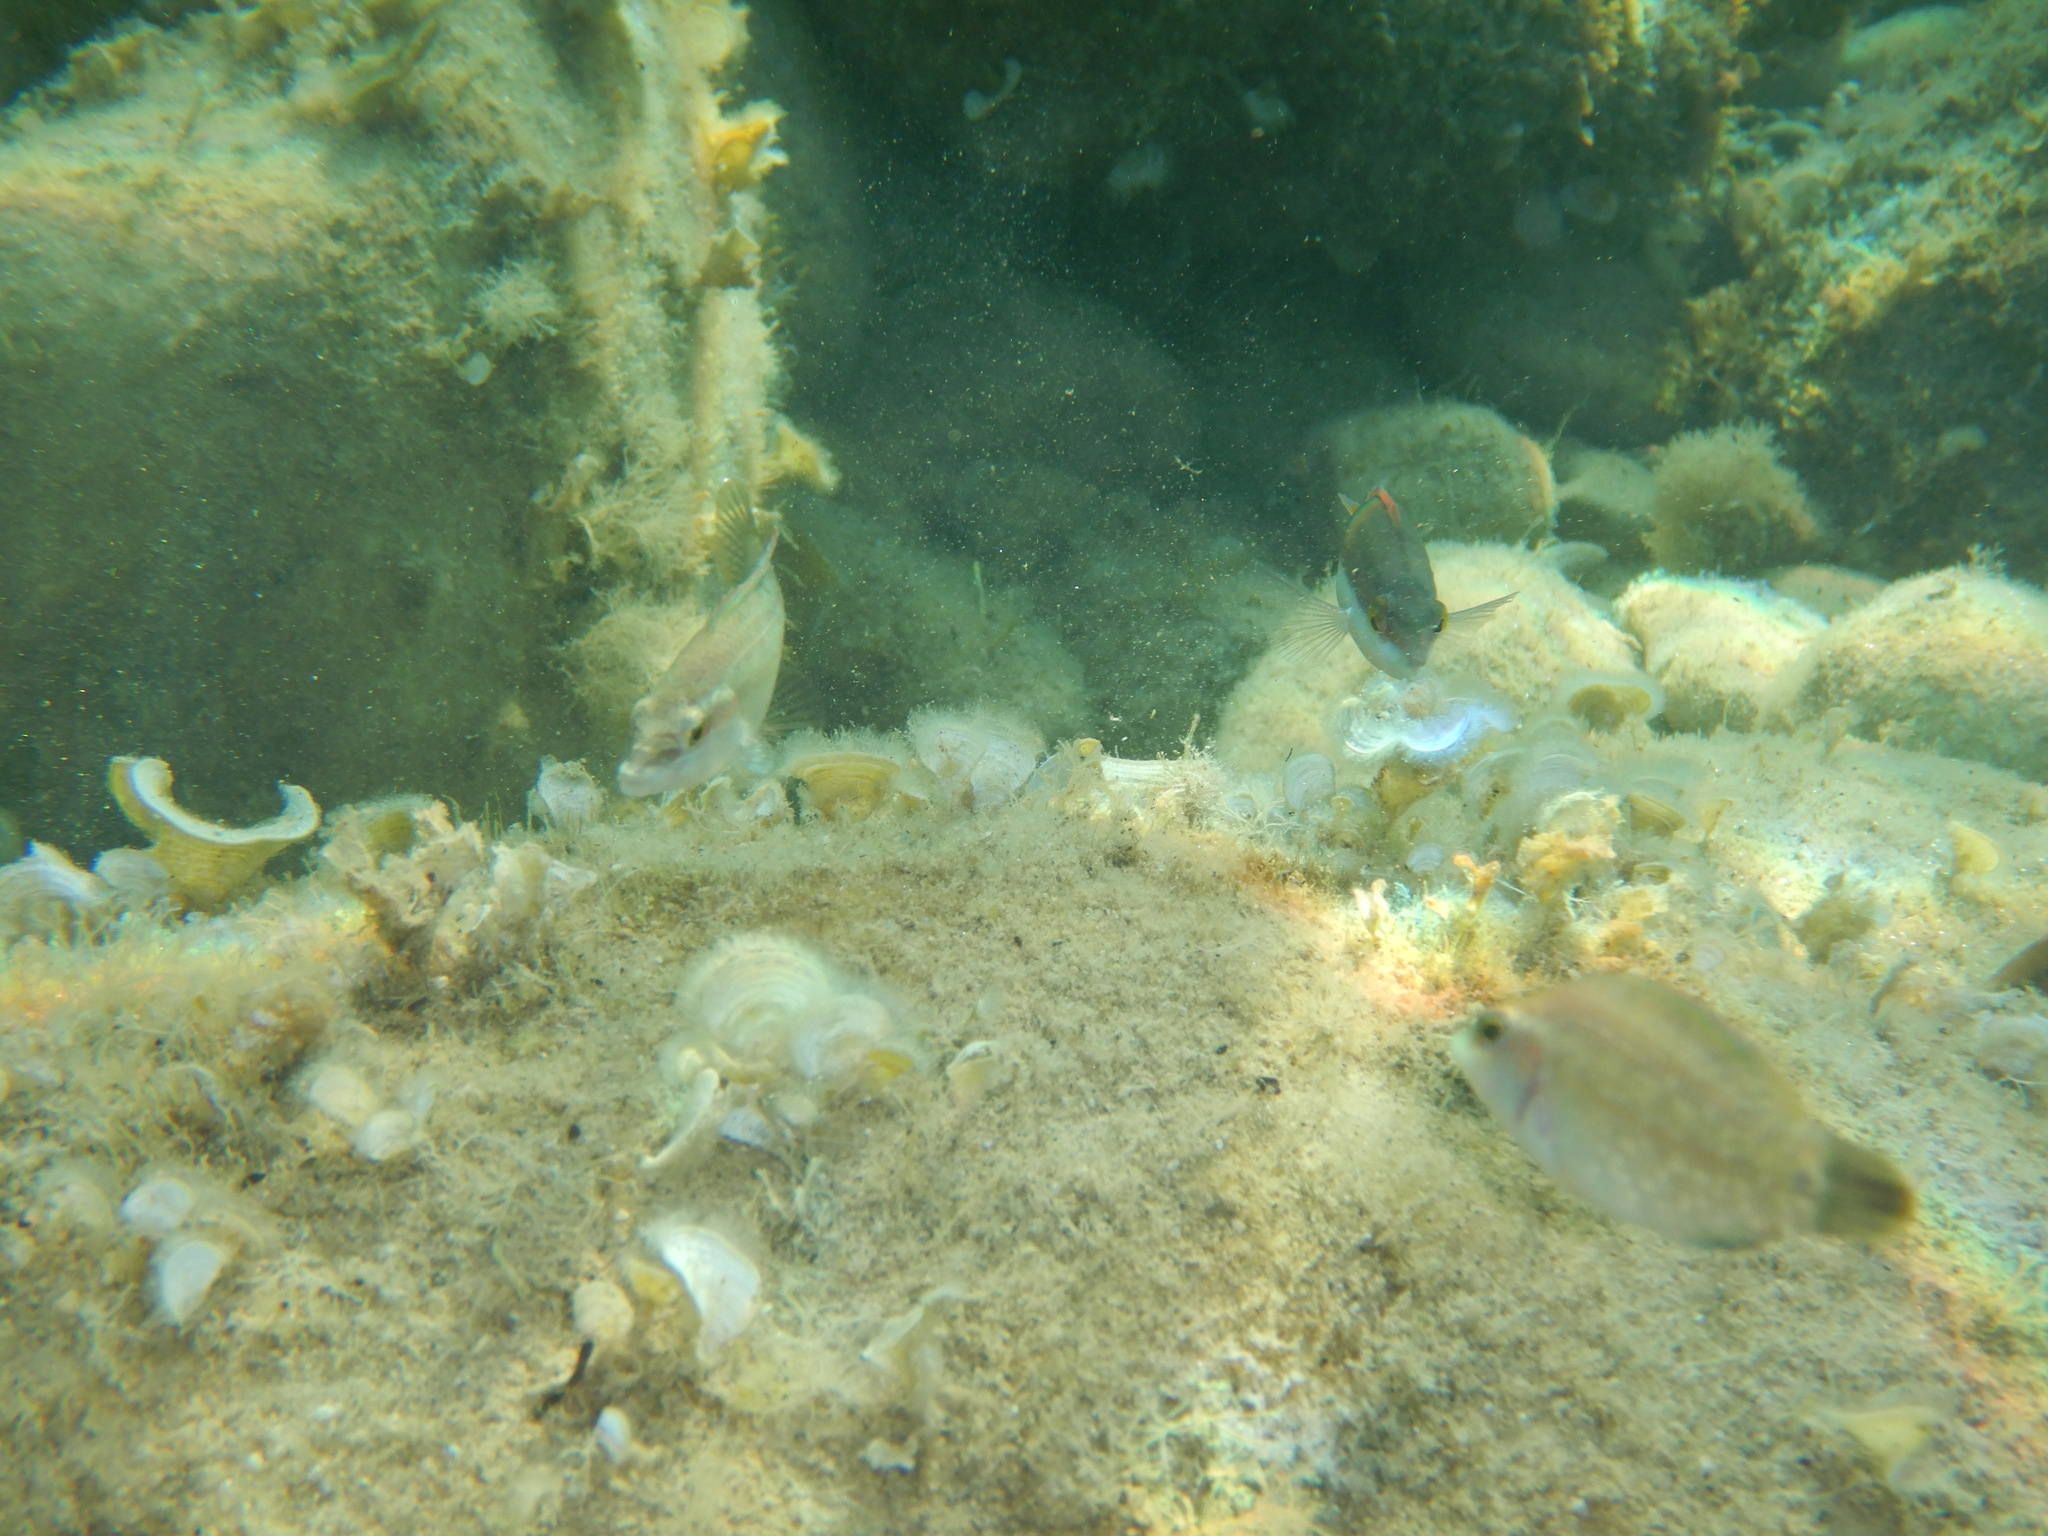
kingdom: Animalia
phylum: Chordata
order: Perciformes
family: Labridae
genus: Symphodus
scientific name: Symphodus tinca
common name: Peacock wrasse
